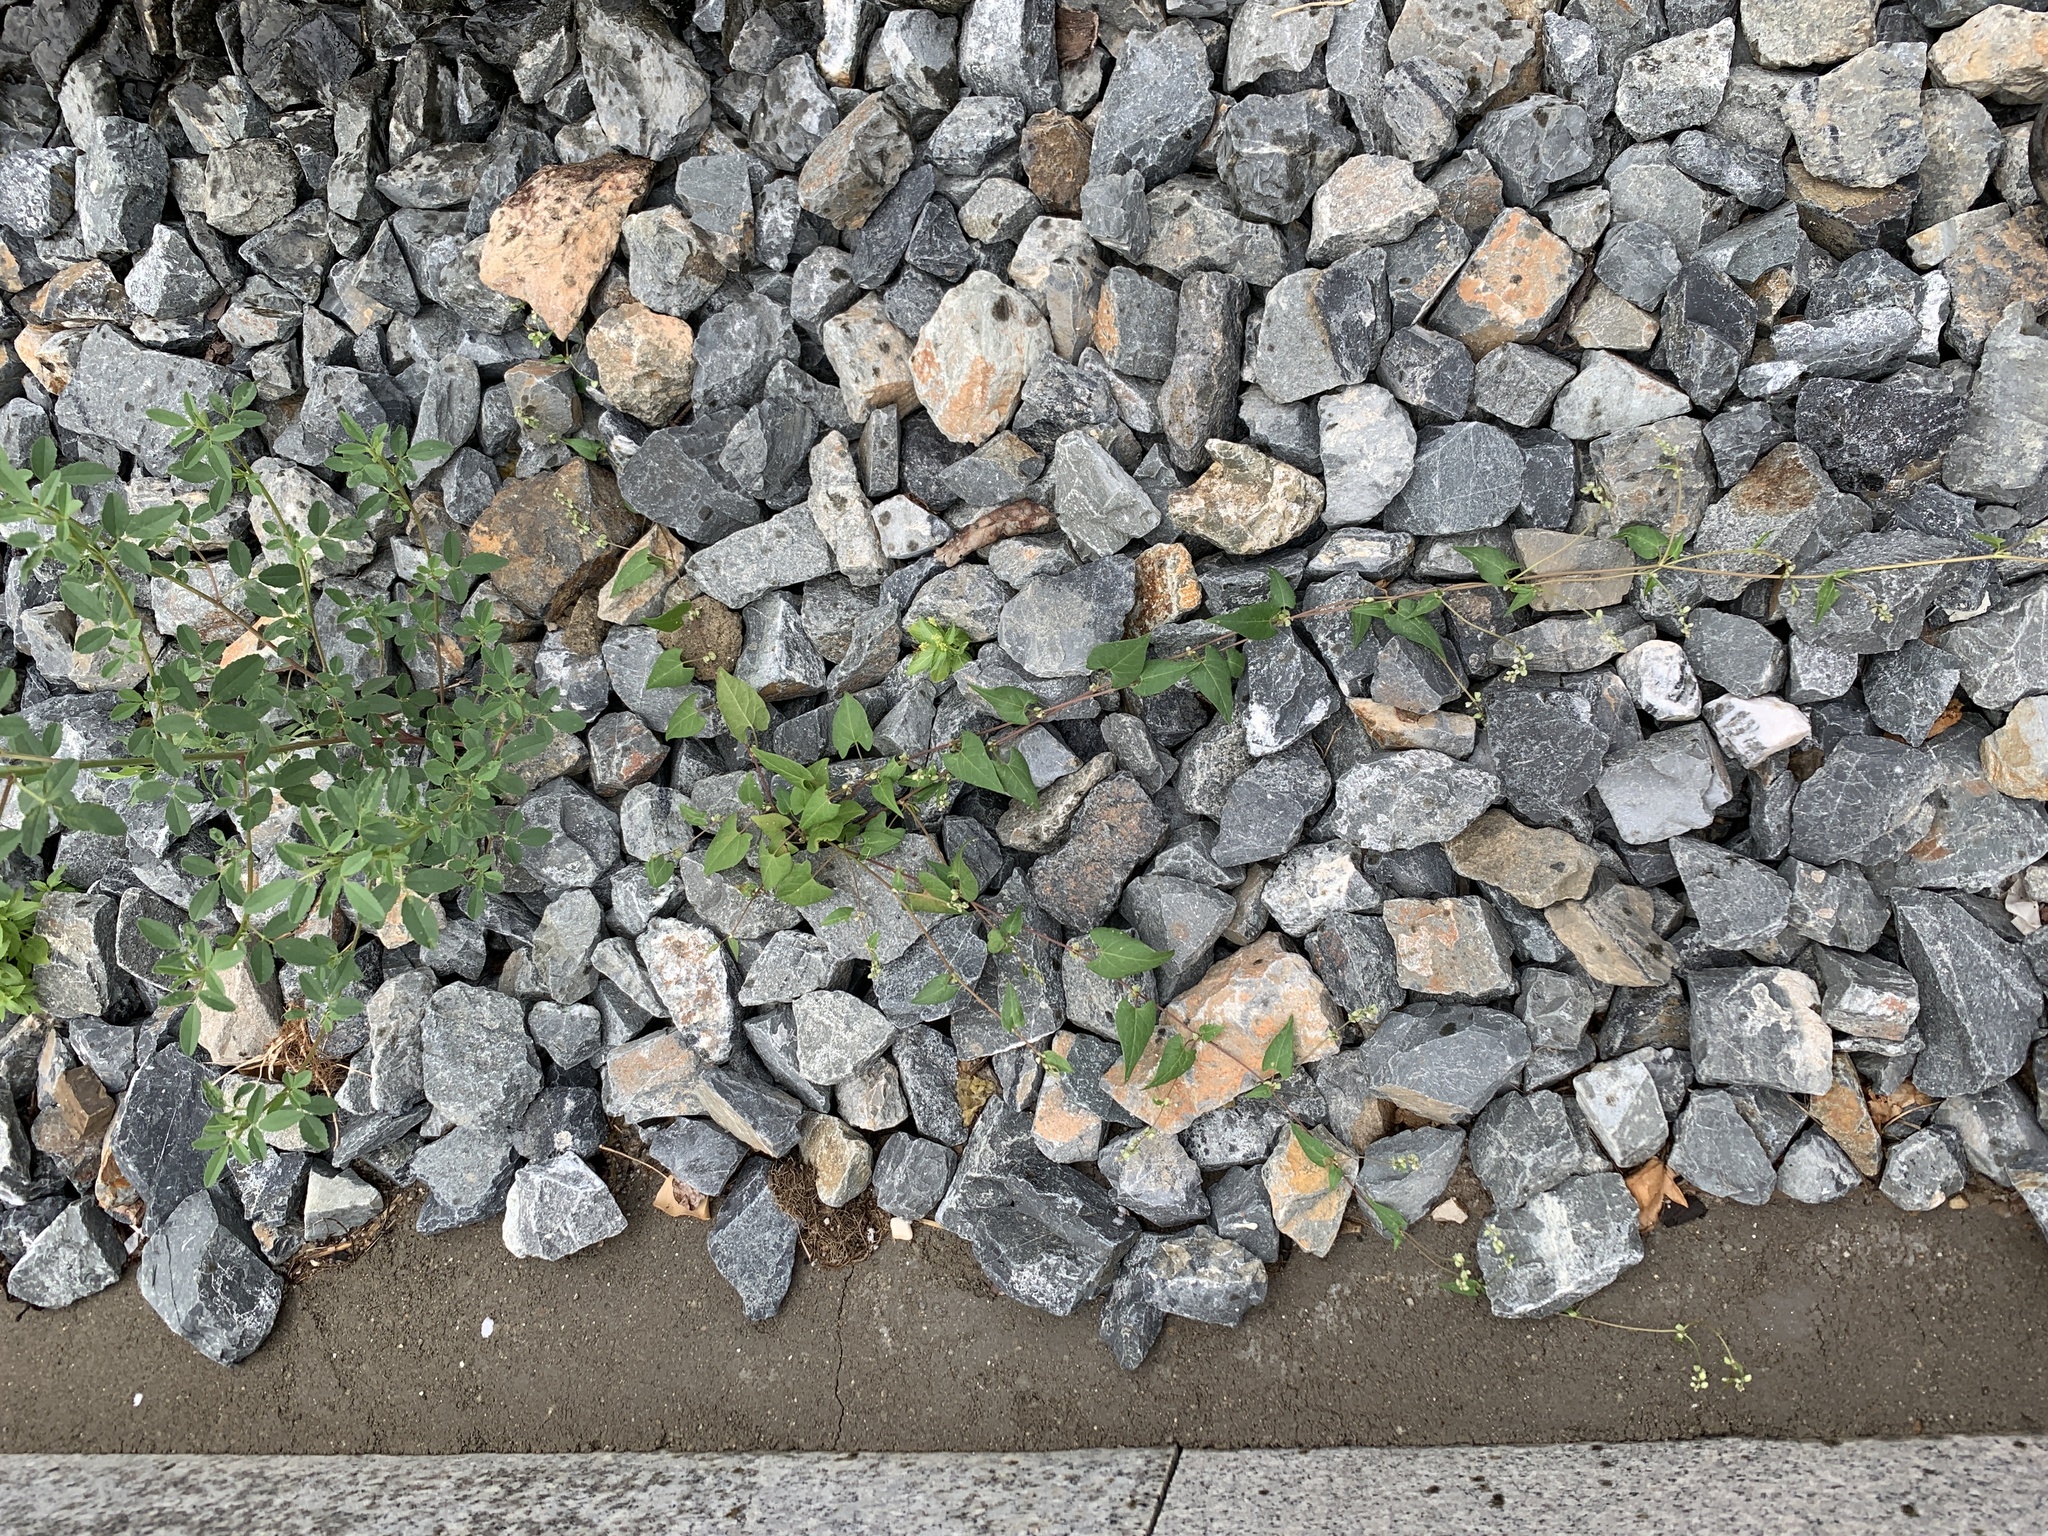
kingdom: Plantae
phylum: Tracheophyta
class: Magnoliopsida
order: Caryophyllales
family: Polygonaceae
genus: Fallopia
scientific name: Fallopia convolvulus
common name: Black bindweed
